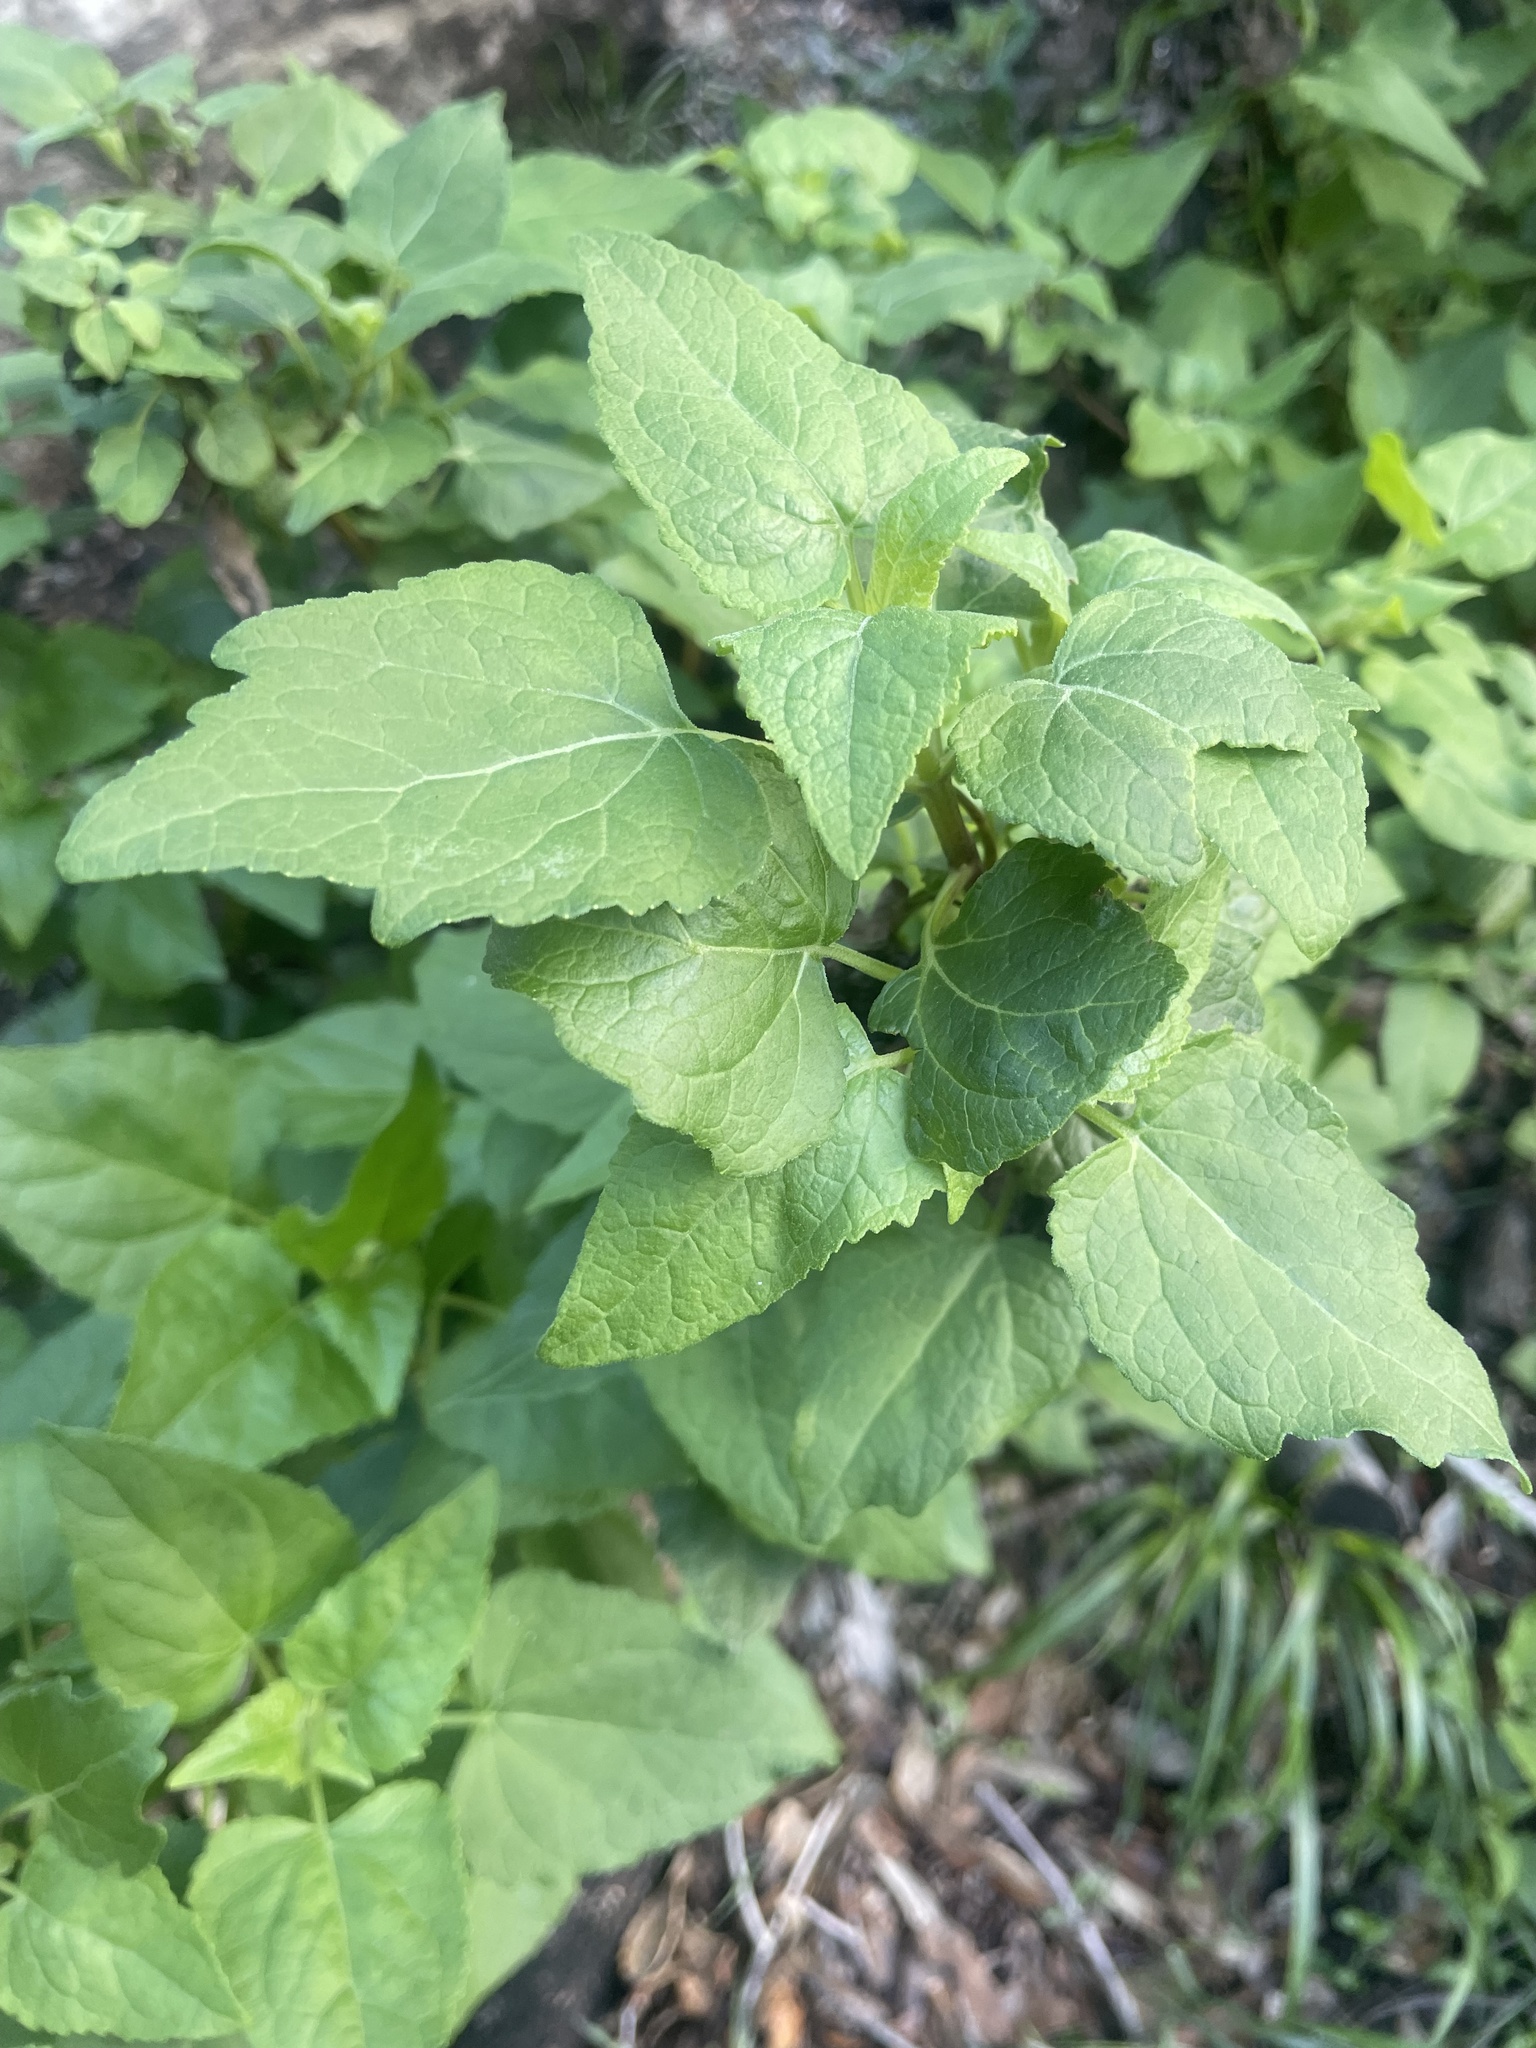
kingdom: Plantae
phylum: Tracheophyta
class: Magnoliopsida
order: Asterales
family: Asteraceae
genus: Venegasia
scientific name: Venegasia carpesioides
